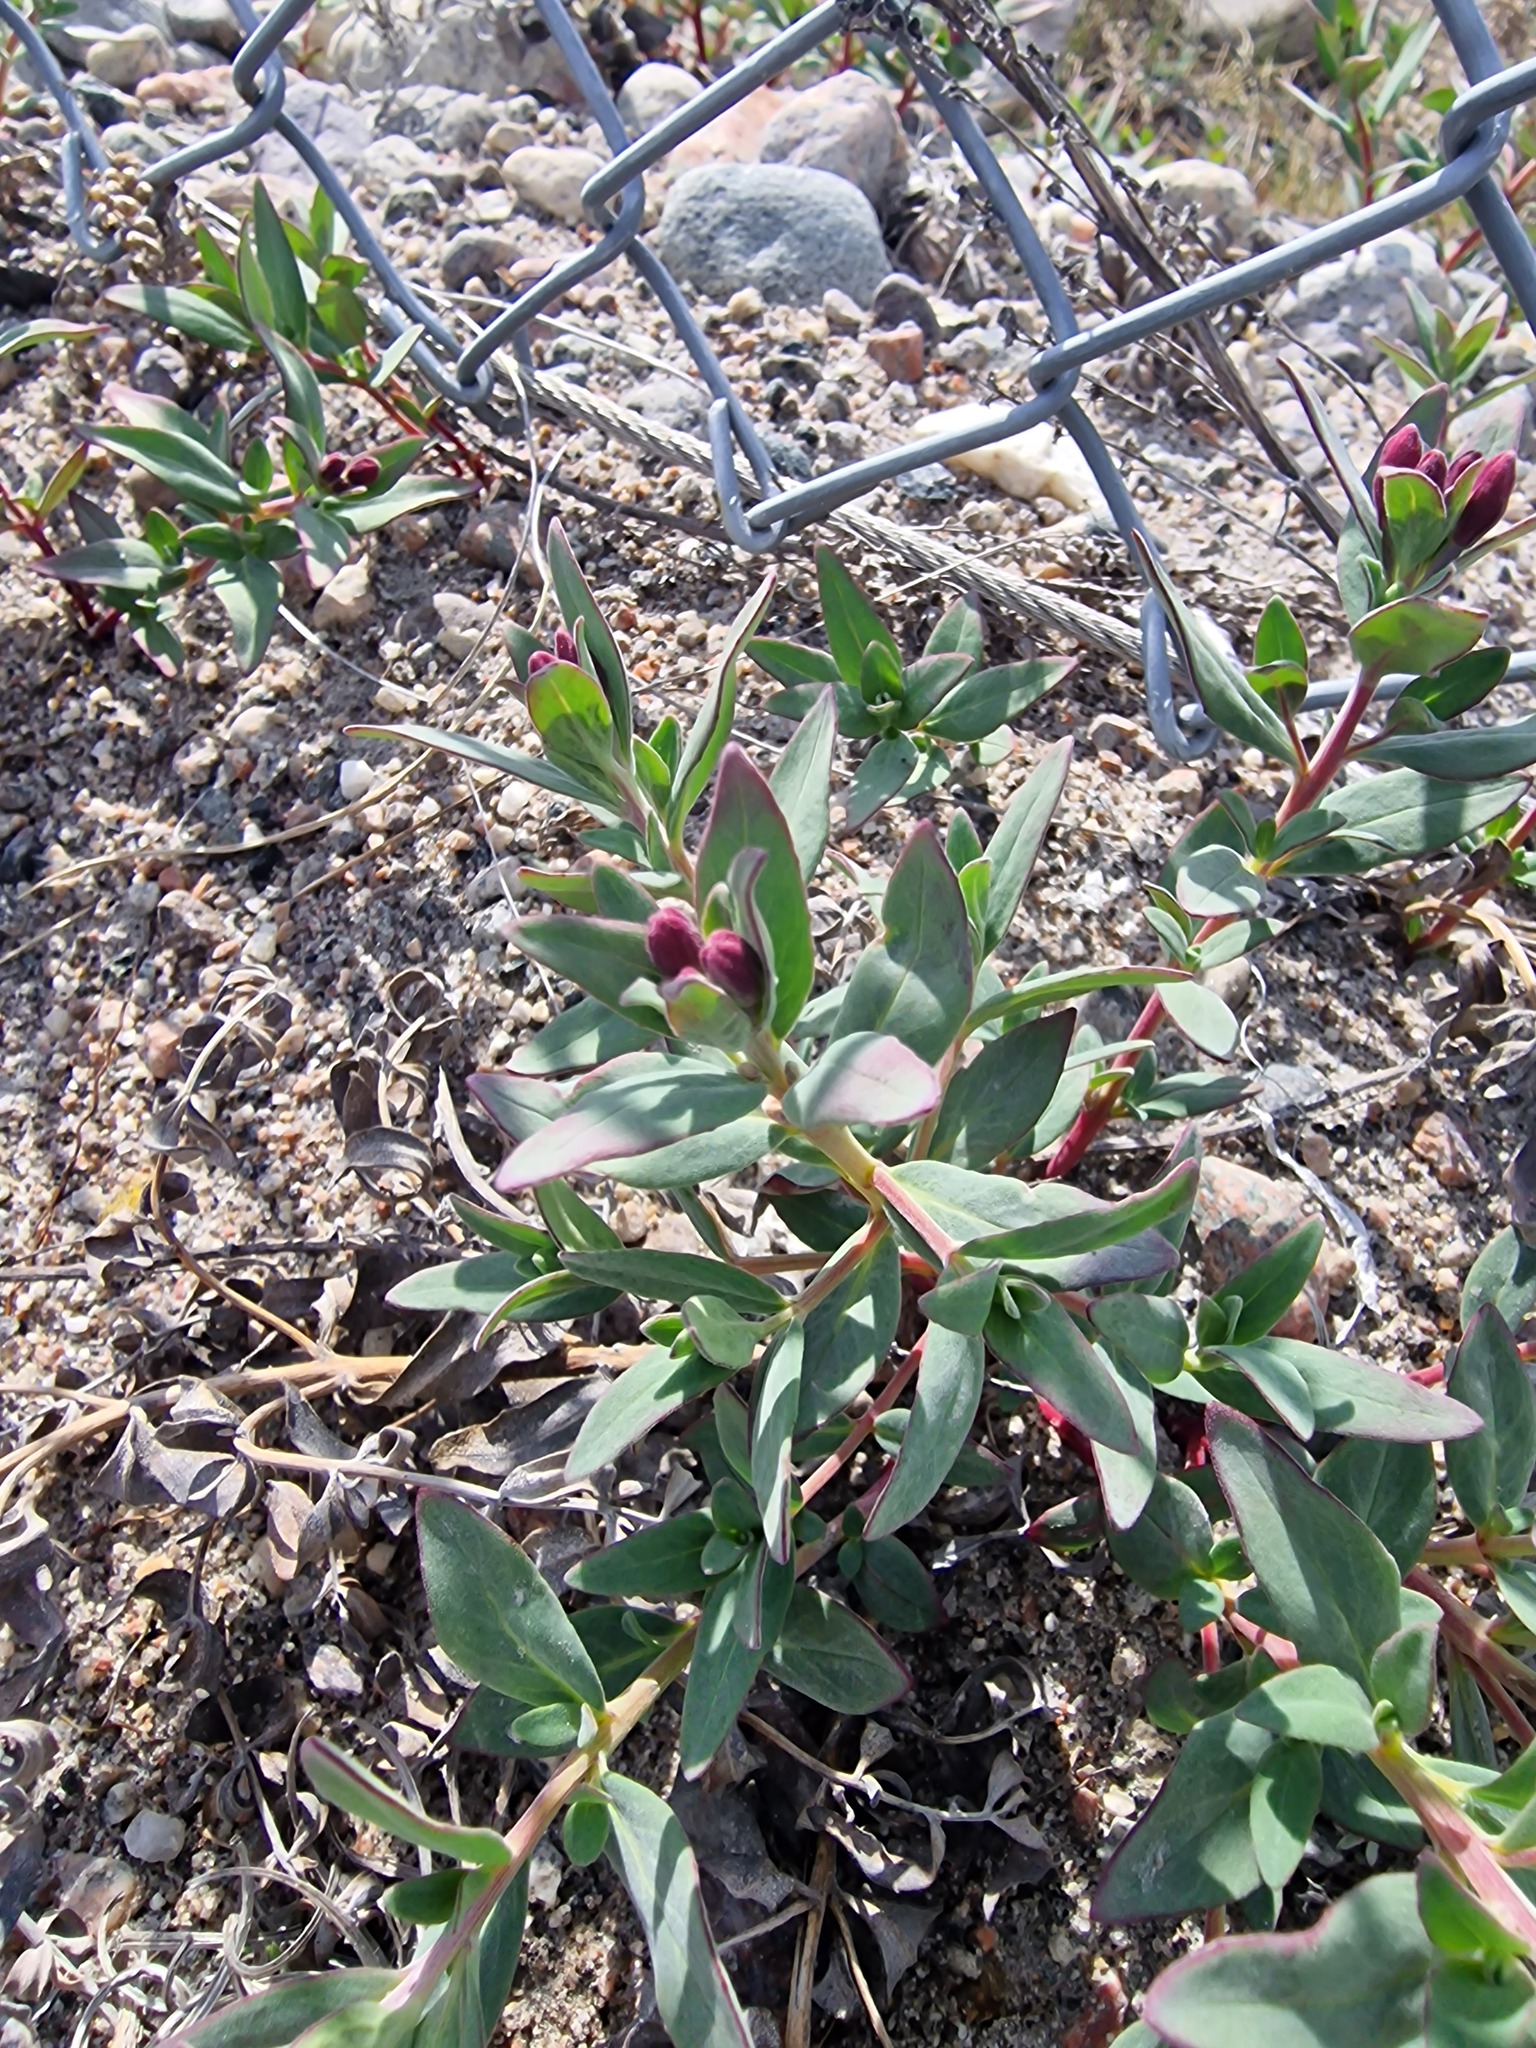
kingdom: Plantae
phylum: Tracheophyta
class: Magnoliopsida
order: Myrtales
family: Onagraceae
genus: Chamaenerion
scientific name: Chamaenerion latifolium
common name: Dwarf fireweed
